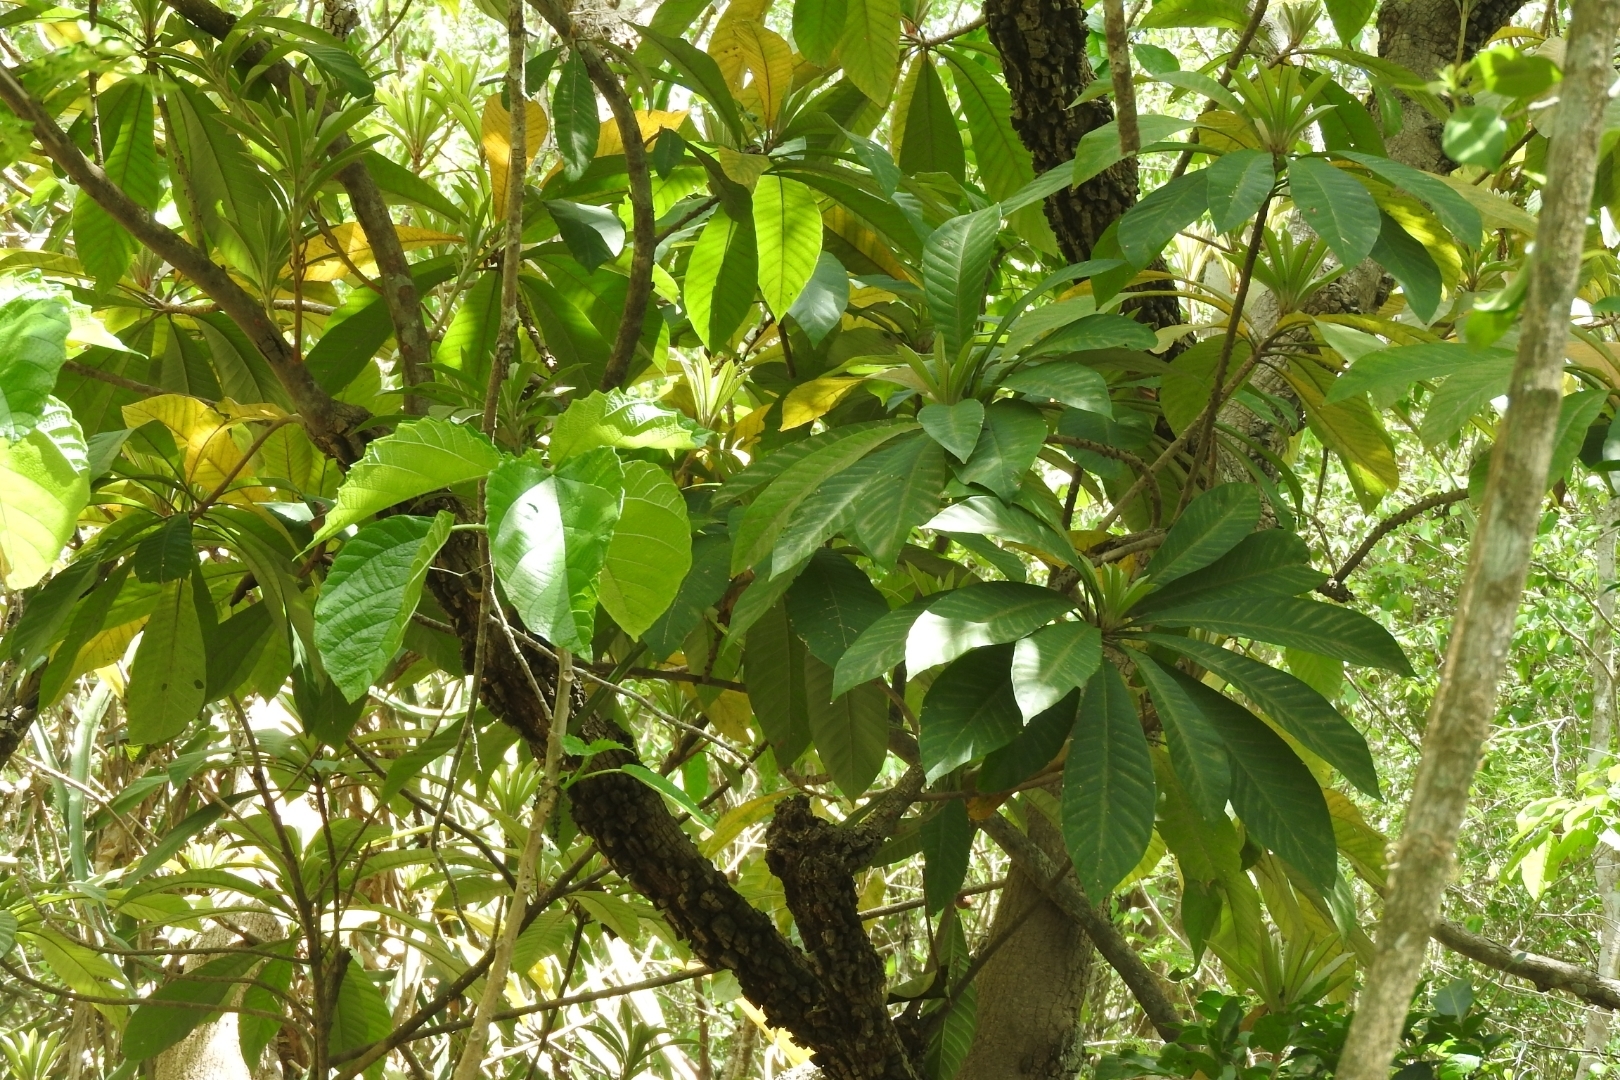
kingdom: Plantae
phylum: Tracheophyta
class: Magnoliopsida
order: Ericales
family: Sapotaceae
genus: Pouteria
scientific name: Pouteria sapota
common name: Mamey
